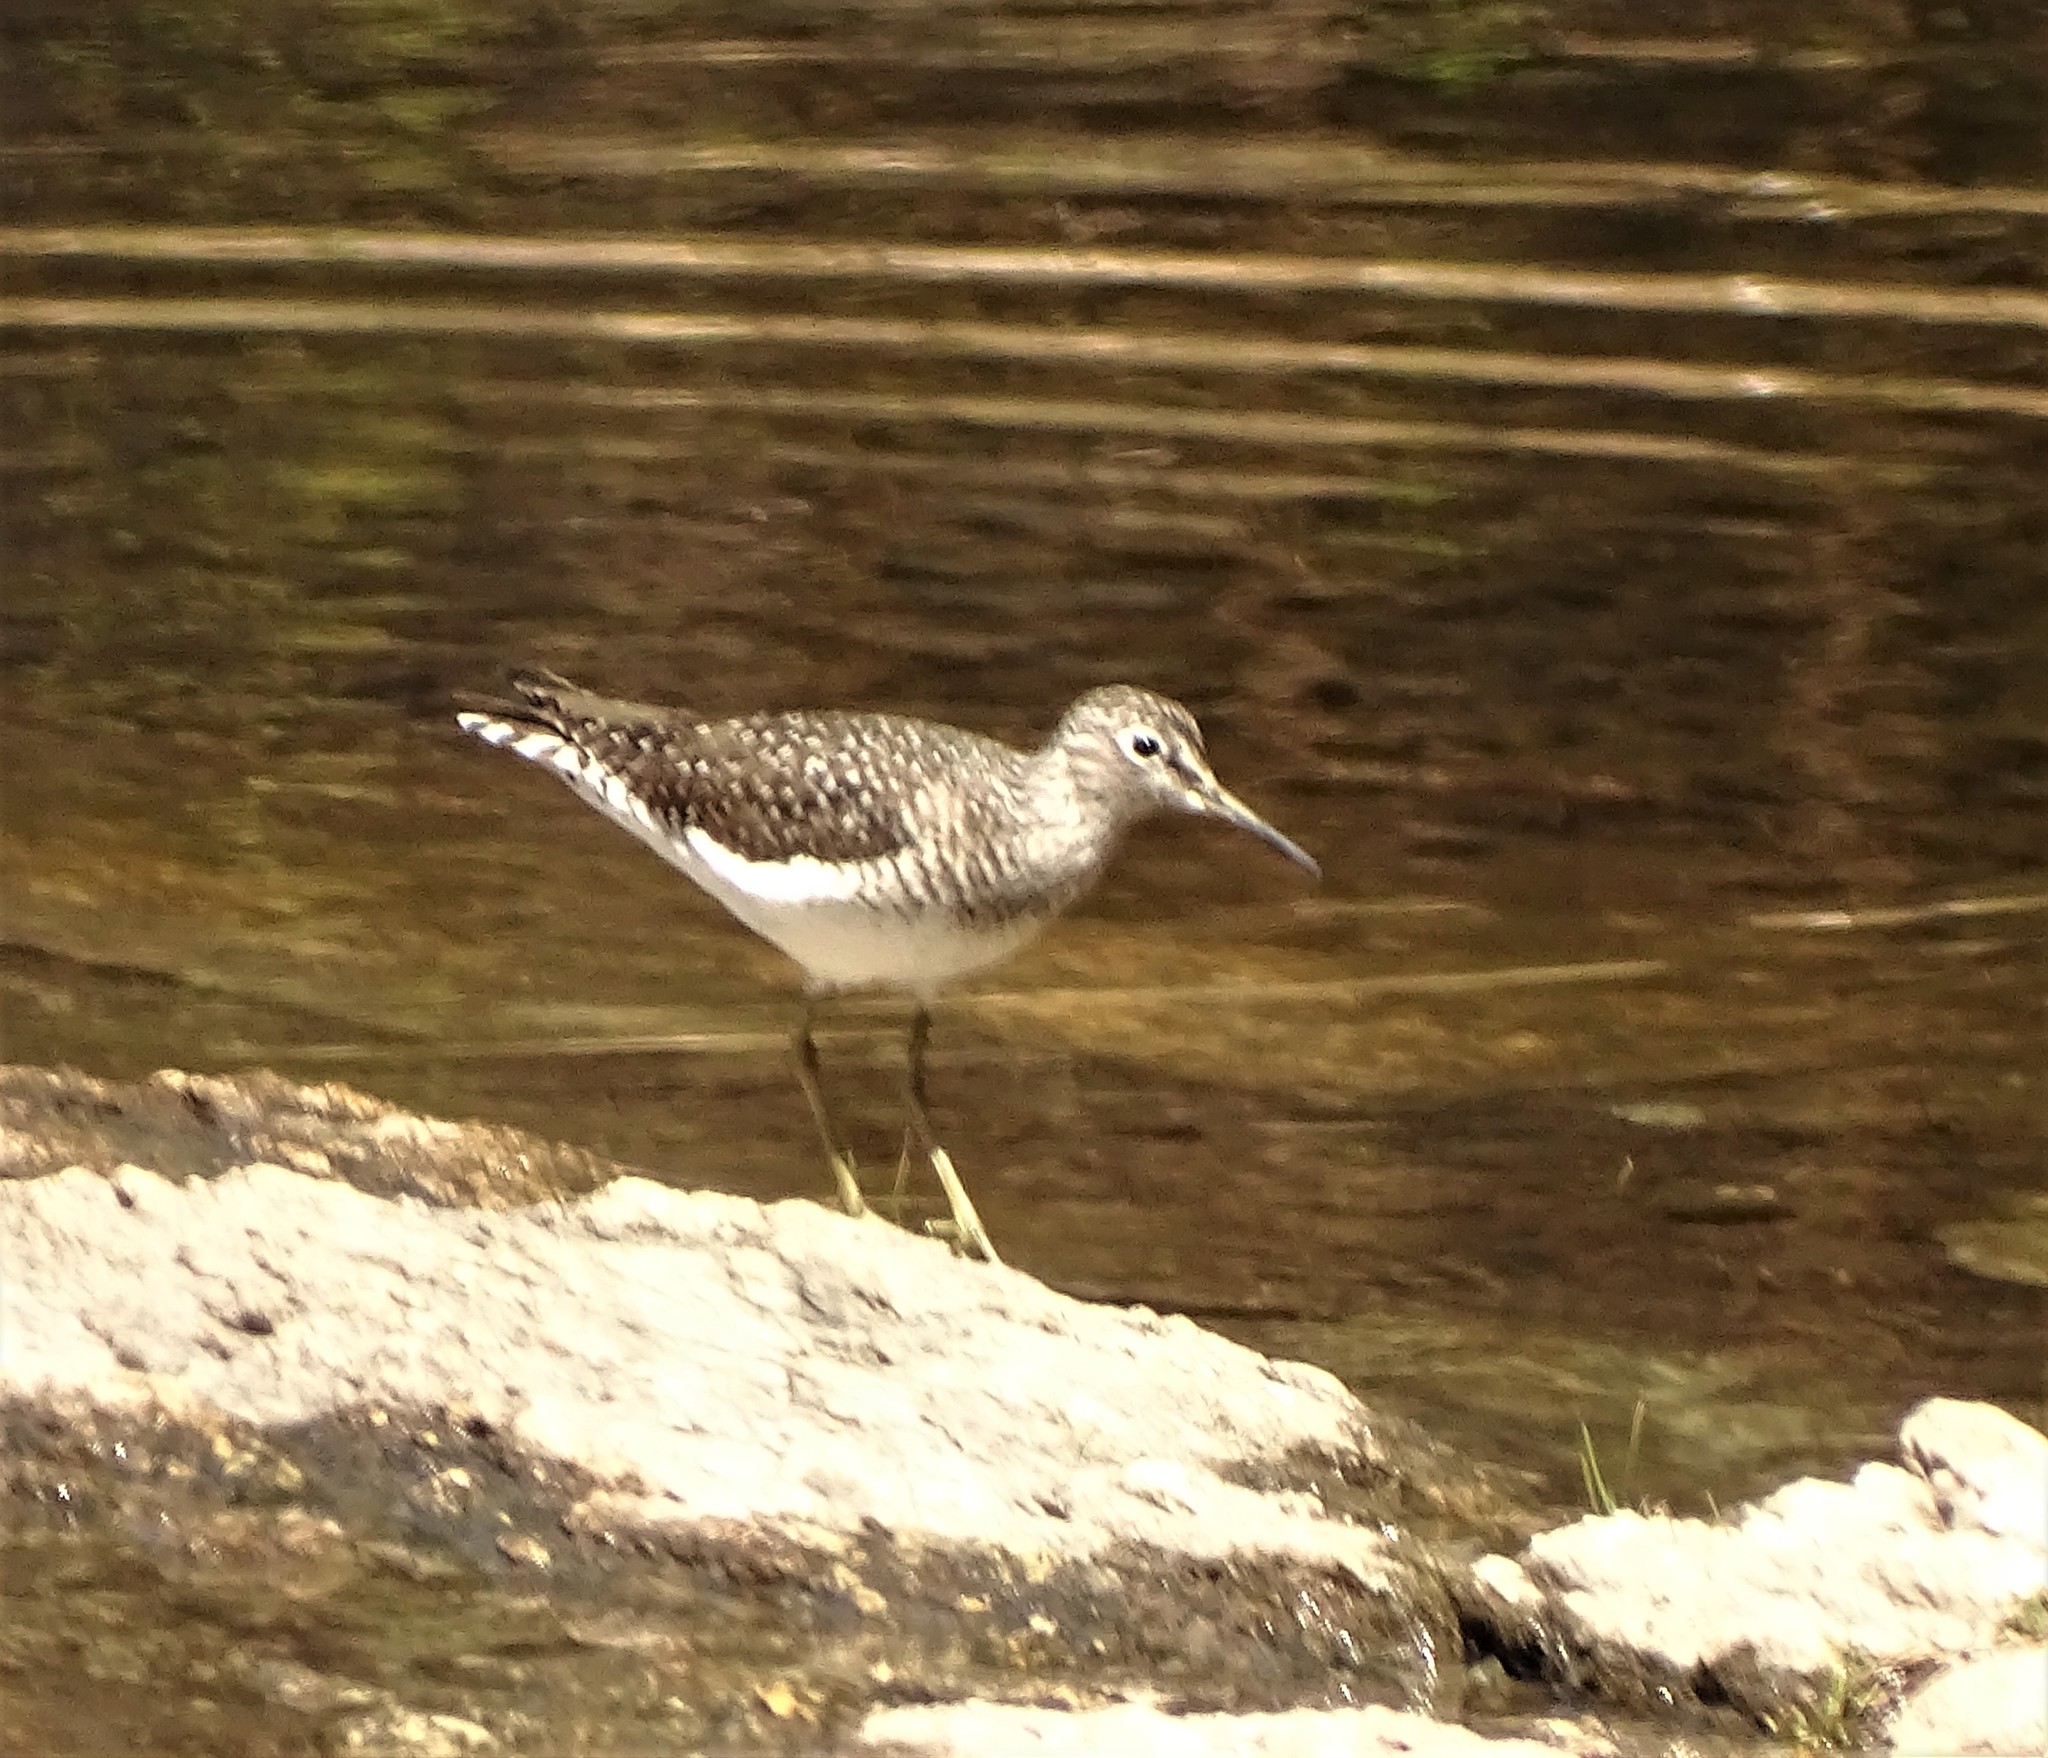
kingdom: Animalia
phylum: Chordata
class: Aves
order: Charadriiformes
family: Scolopacidae
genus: Tringa
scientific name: Tringa solitaria
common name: Solitary sandpiper
